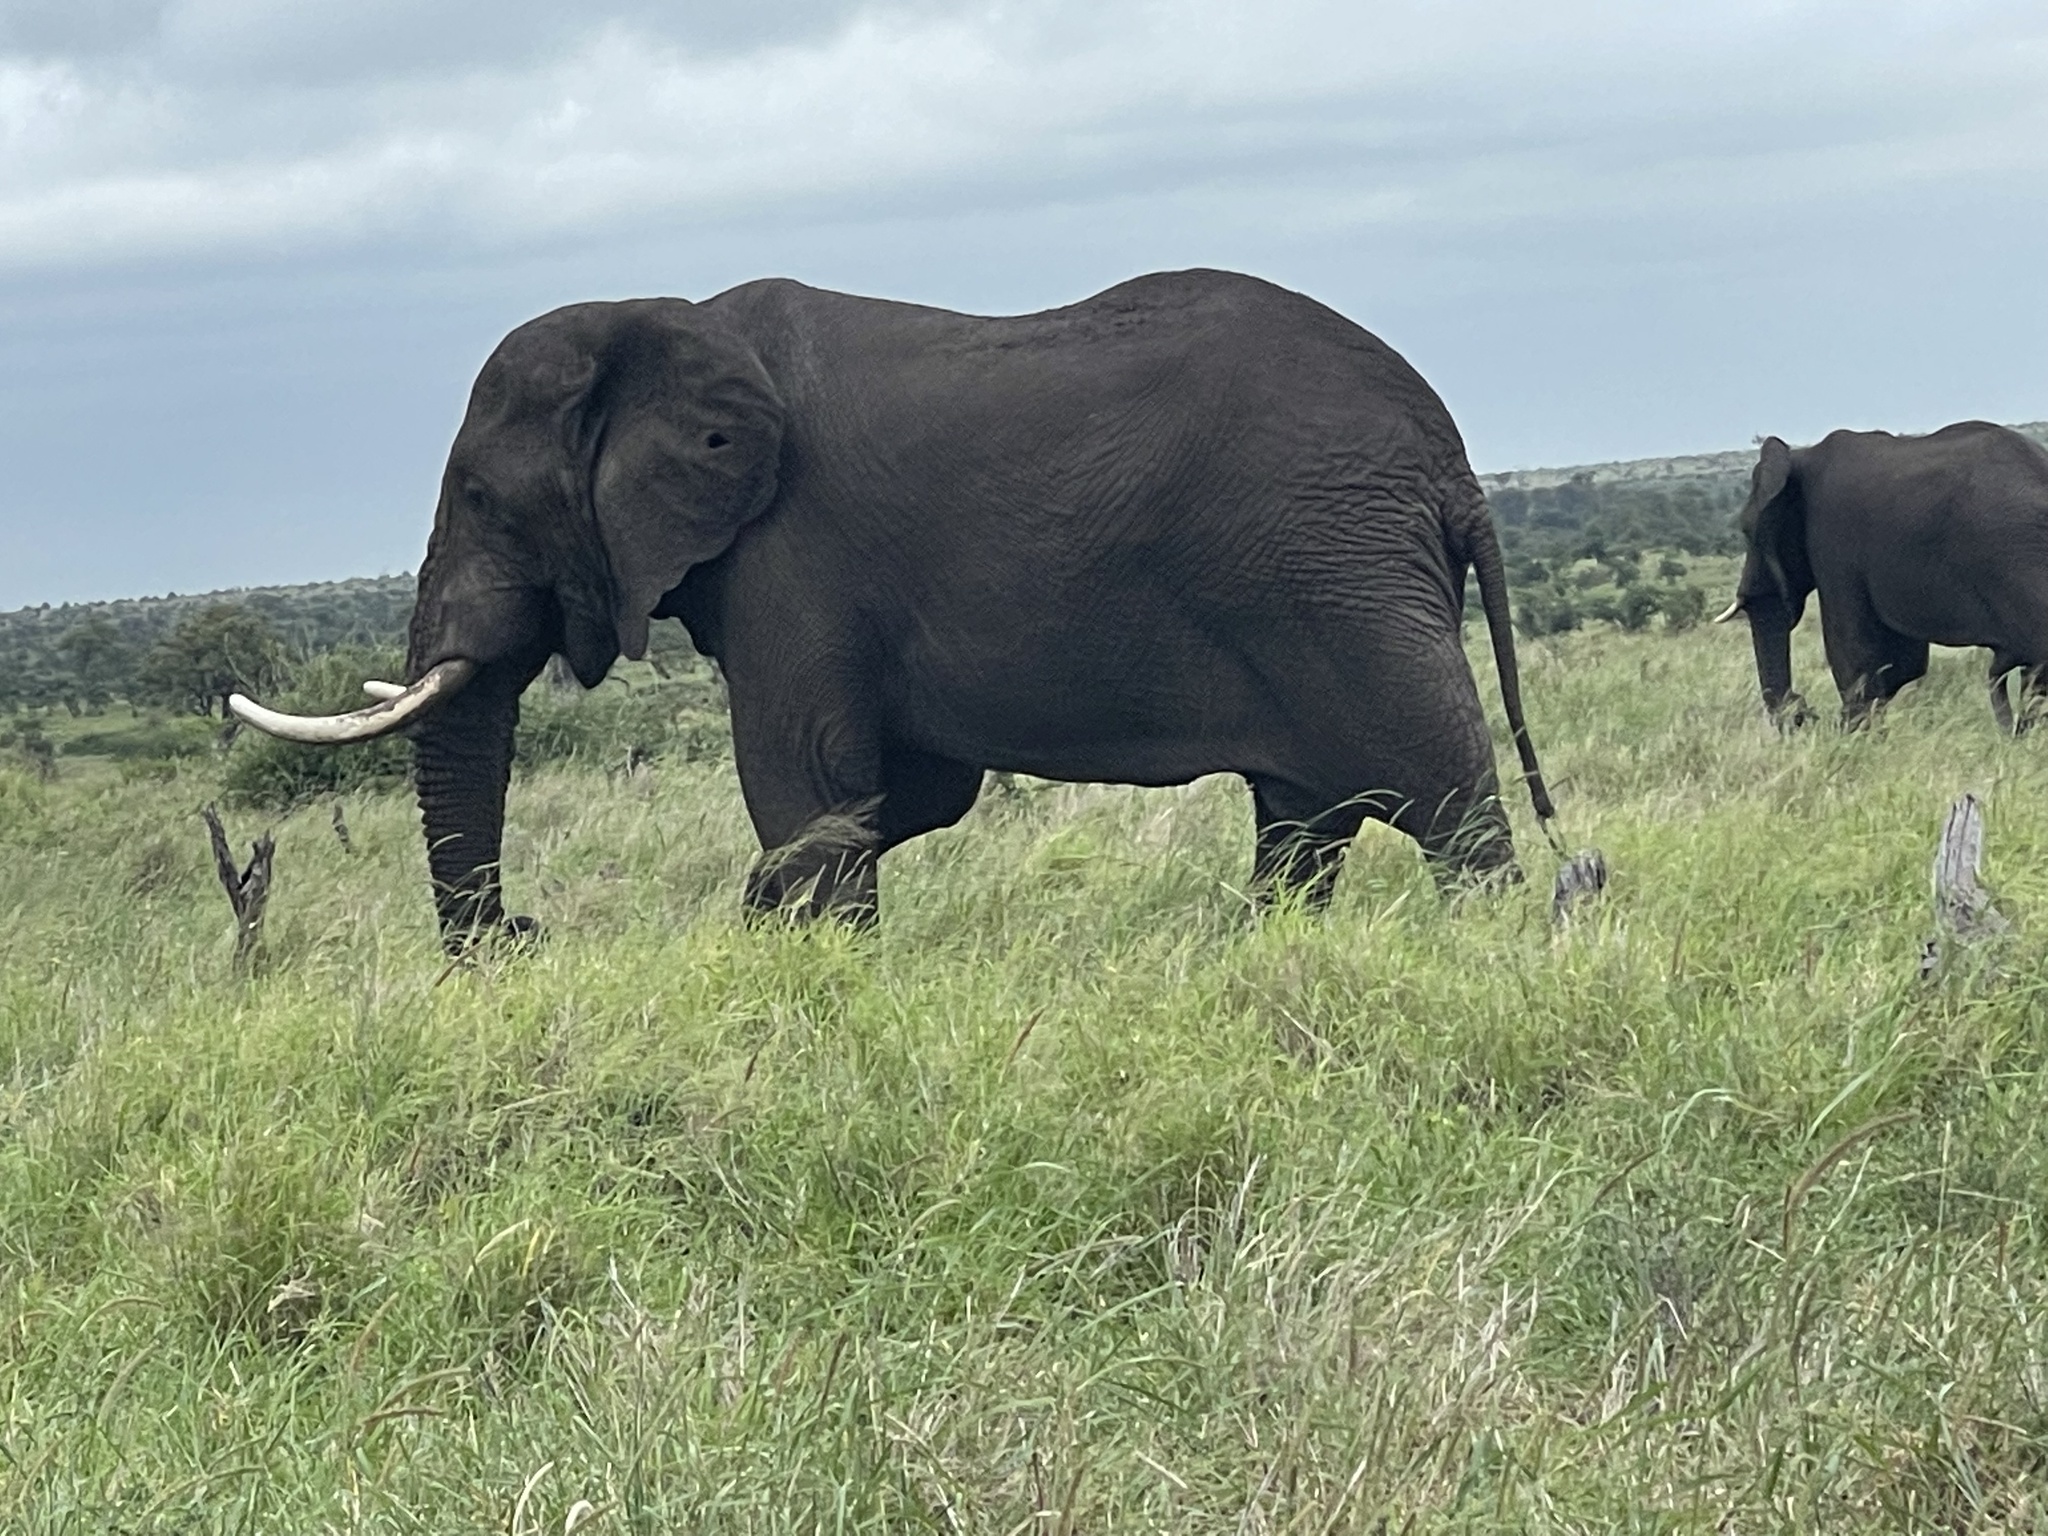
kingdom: Animalia
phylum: Chordata
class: Mammalia
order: Proboscidea
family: Elephantidae
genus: Loxodonta
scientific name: Loxodonta africana
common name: African elephant
